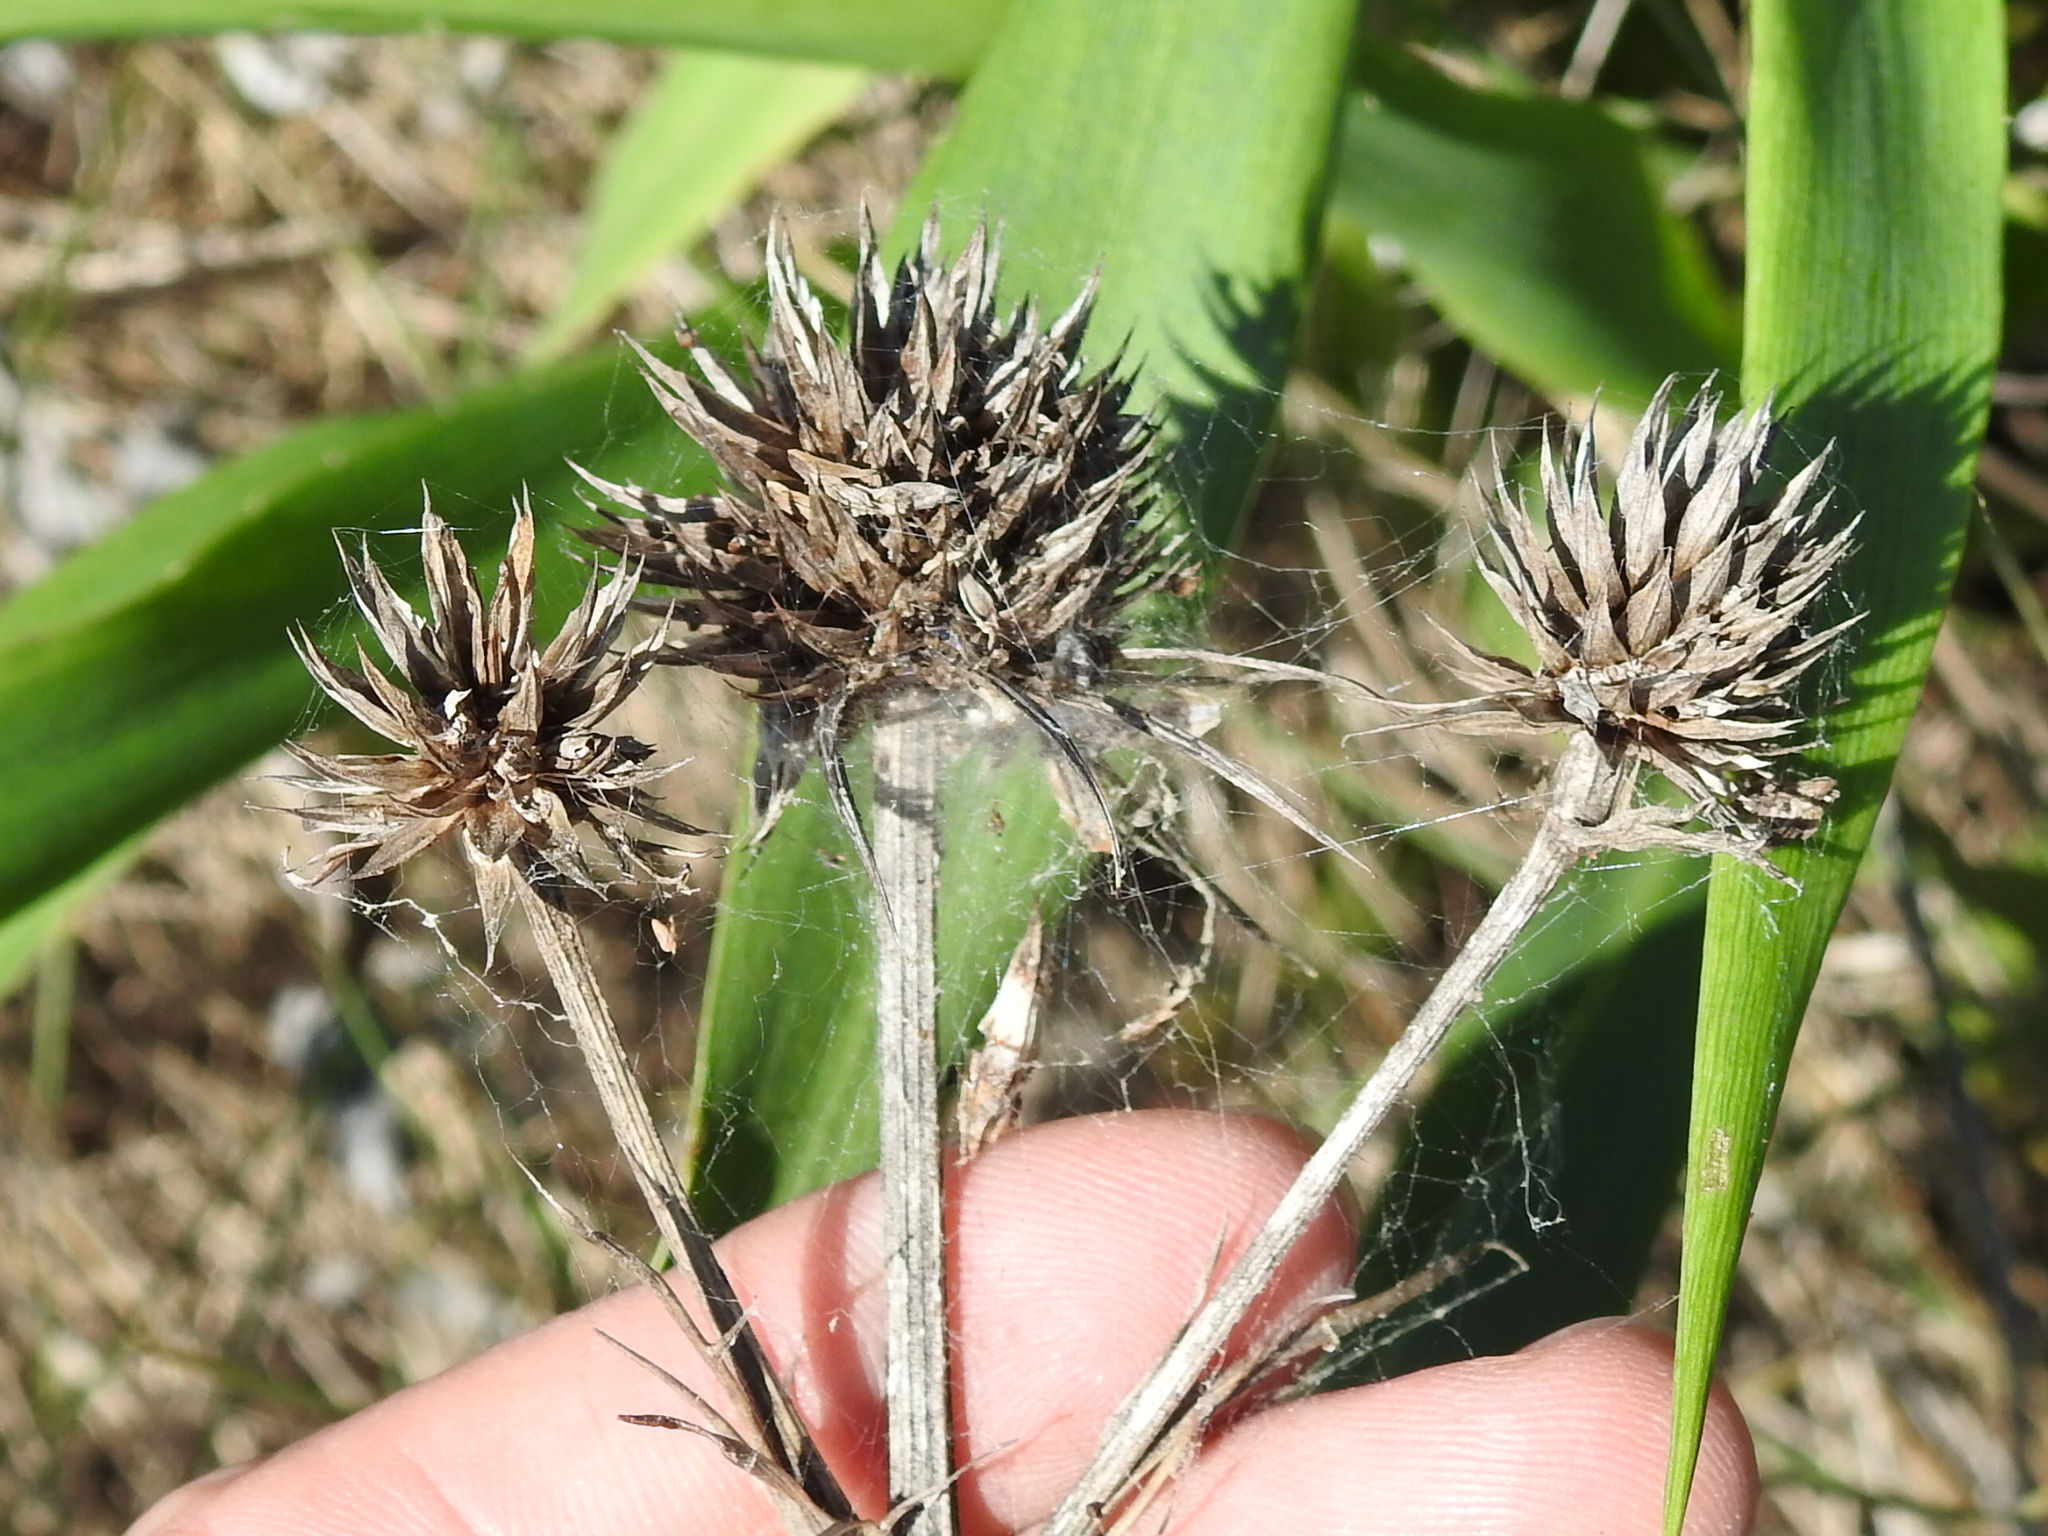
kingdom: Plantae
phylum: Tracheophyta
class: Magnoliopsida
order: Apiales
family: Apiaceae
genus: Eryngium
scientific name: Eryngium yuccifolium
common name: Button eryngo
